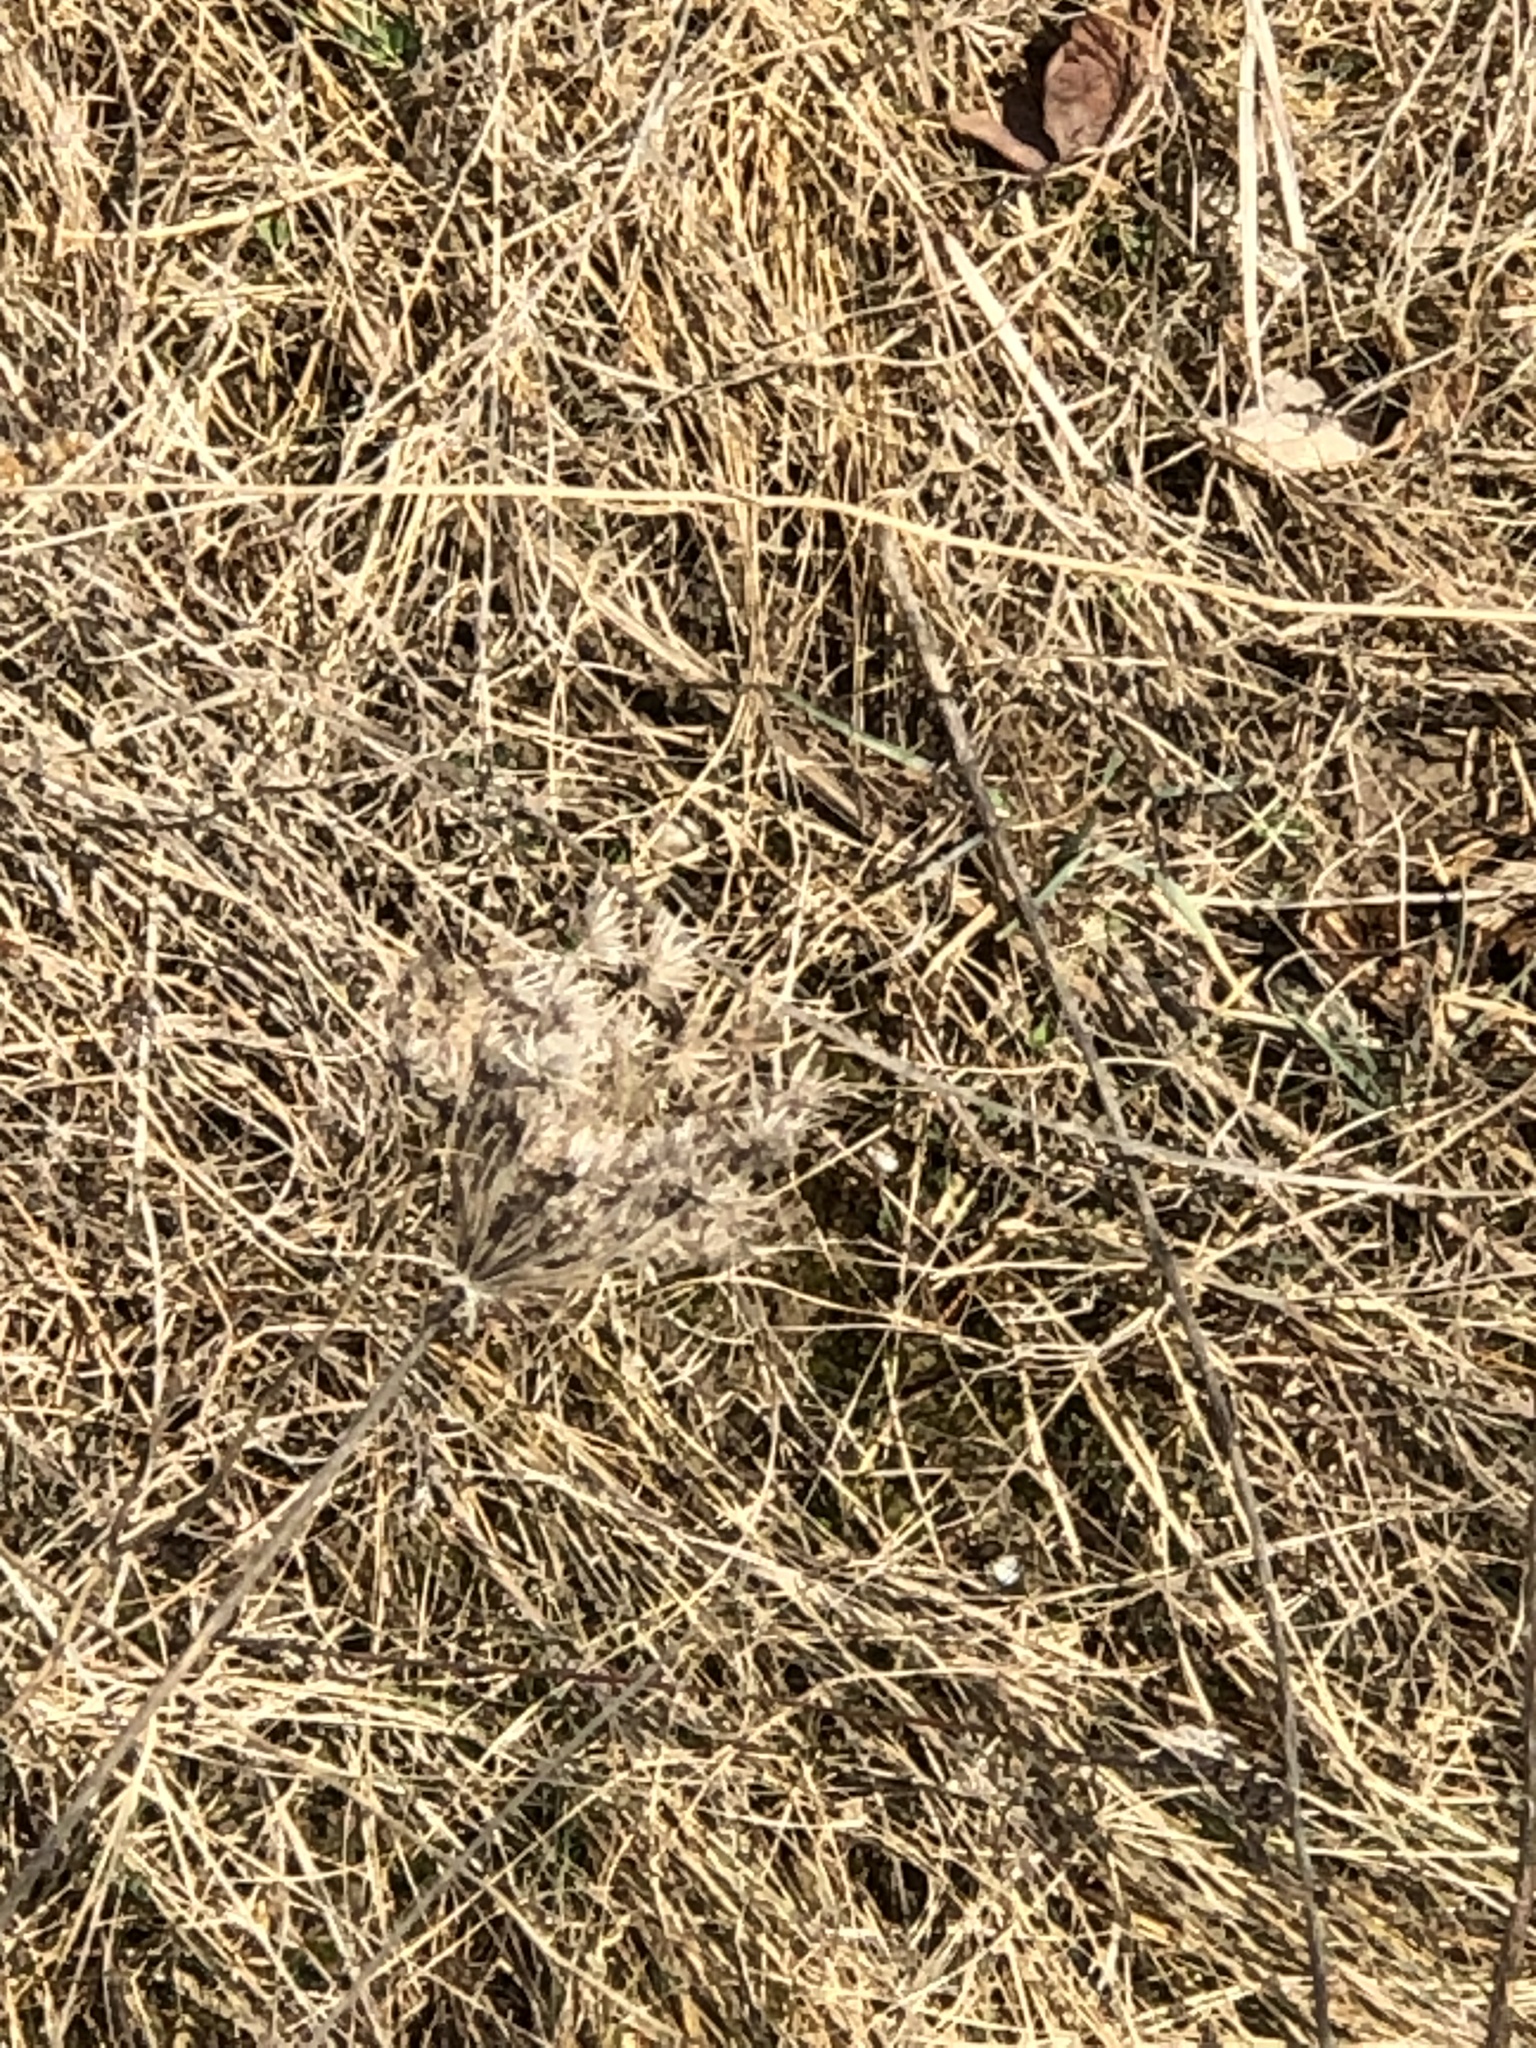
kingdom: Plantae
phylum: Tracheophyta
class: Magnoliopsida
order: Apiales
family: Apiaceae
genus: Daucus
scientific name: Daucus carota
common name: Wild carrot
